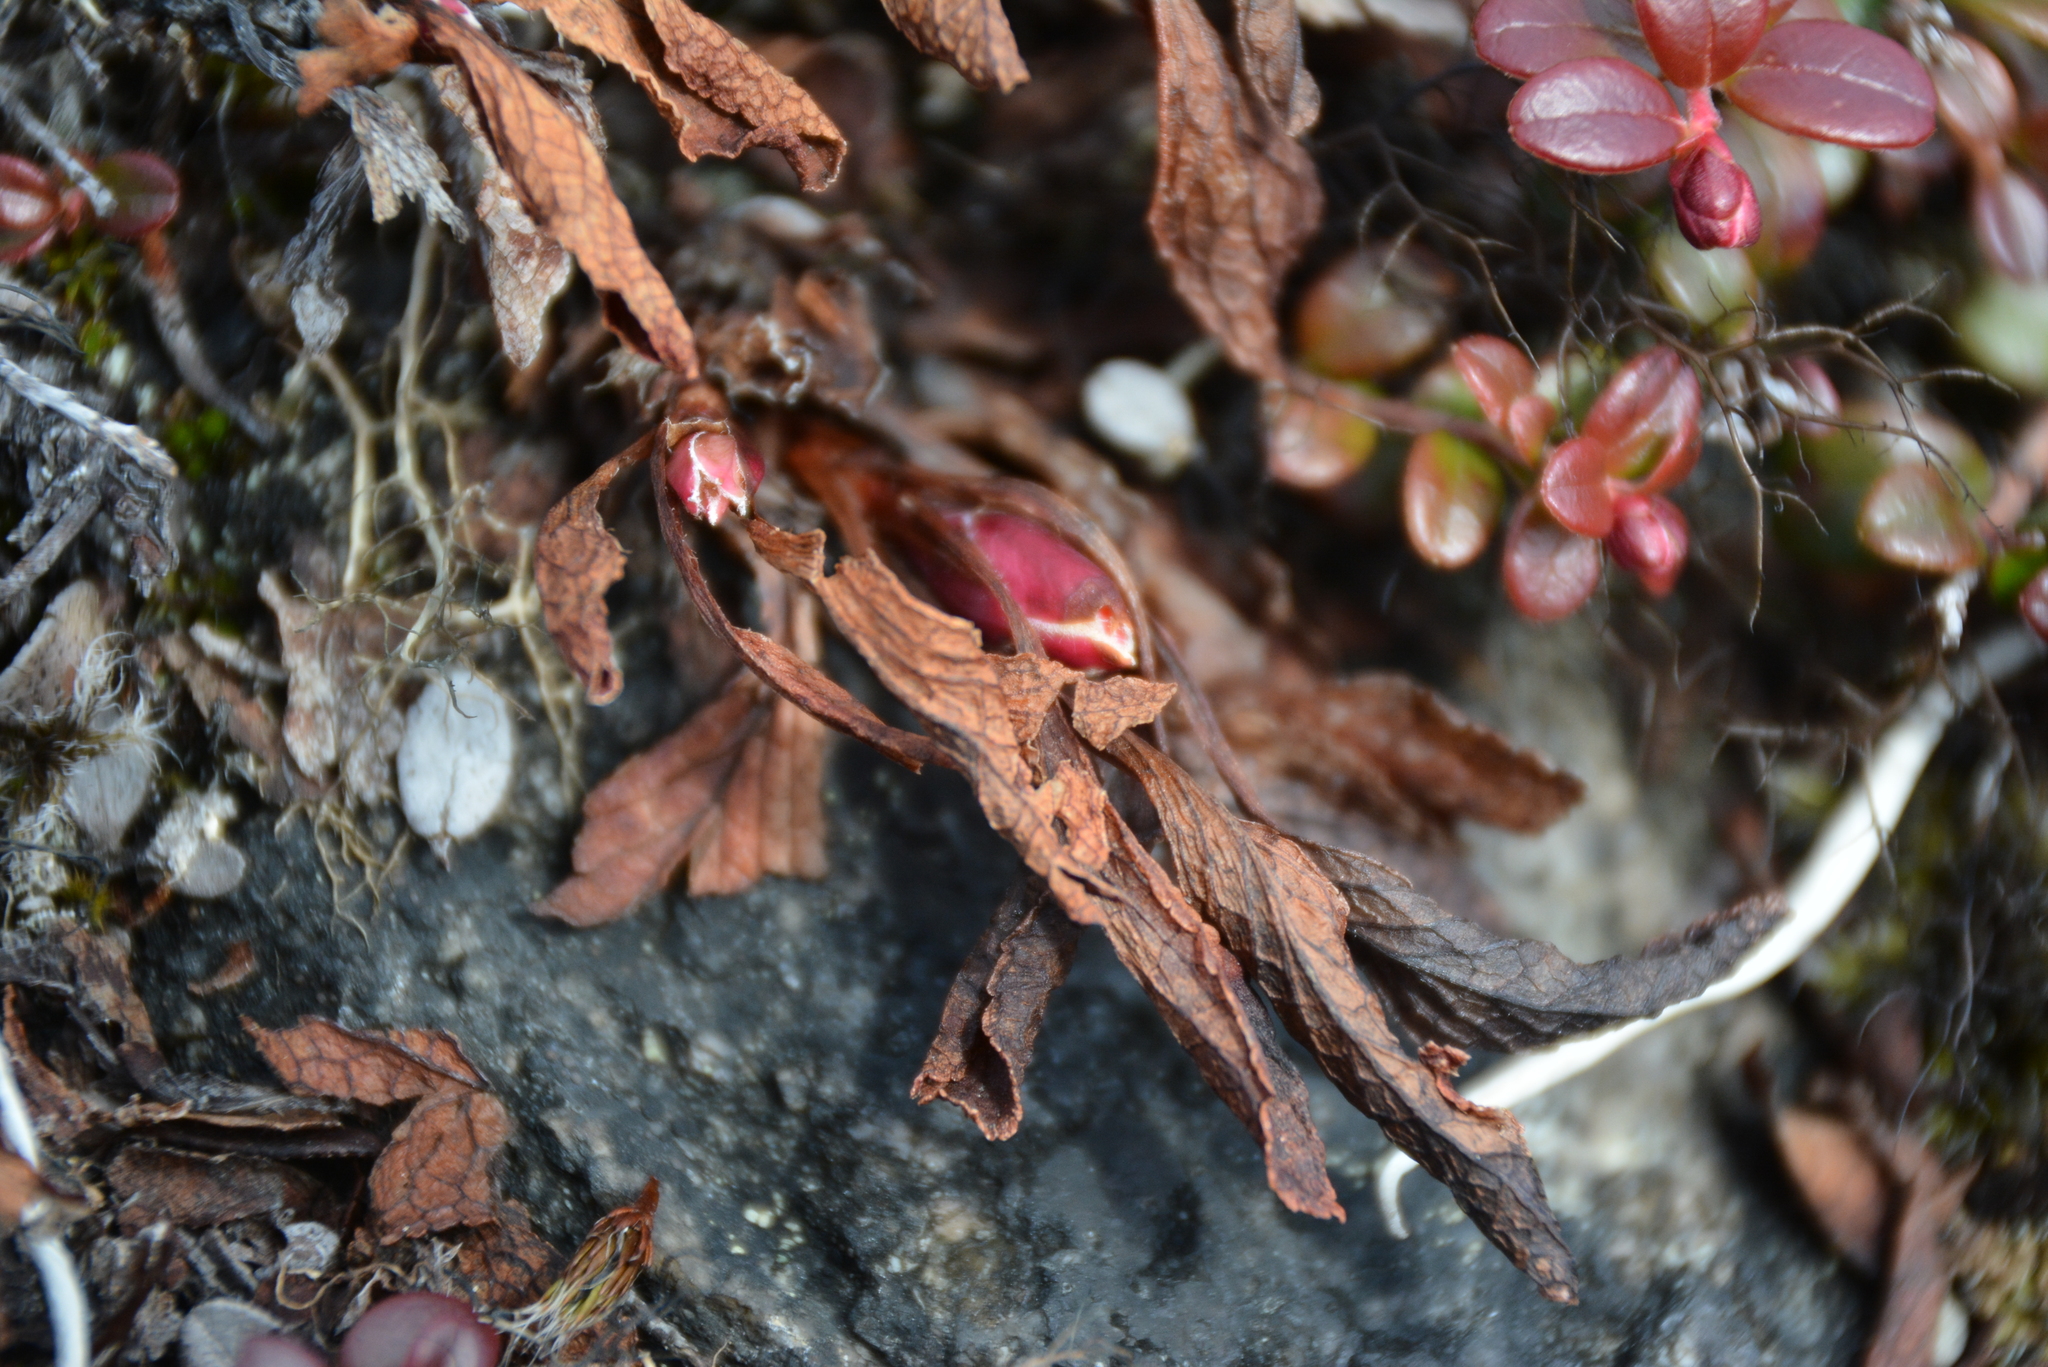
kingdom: Plantae
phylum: Tracheophyta
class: Magnoliopsida
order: Ericales
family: Ericaceae
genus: Arctostaphylos
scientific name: Arctostaphylos alpinus
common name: Alpine bearberry
